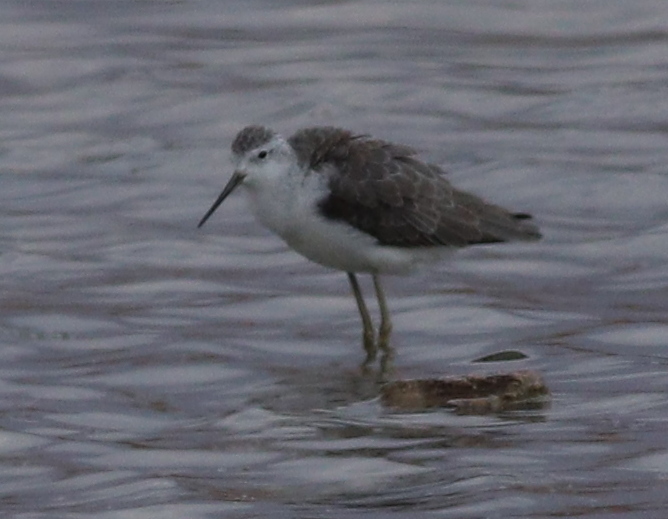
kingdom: Animalia
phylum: Chordata
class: Aves
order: Charadriiformes
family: Scolopacidae
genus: Tringa
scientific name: Tringa stagnatilis
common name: Marsh sandpiper
